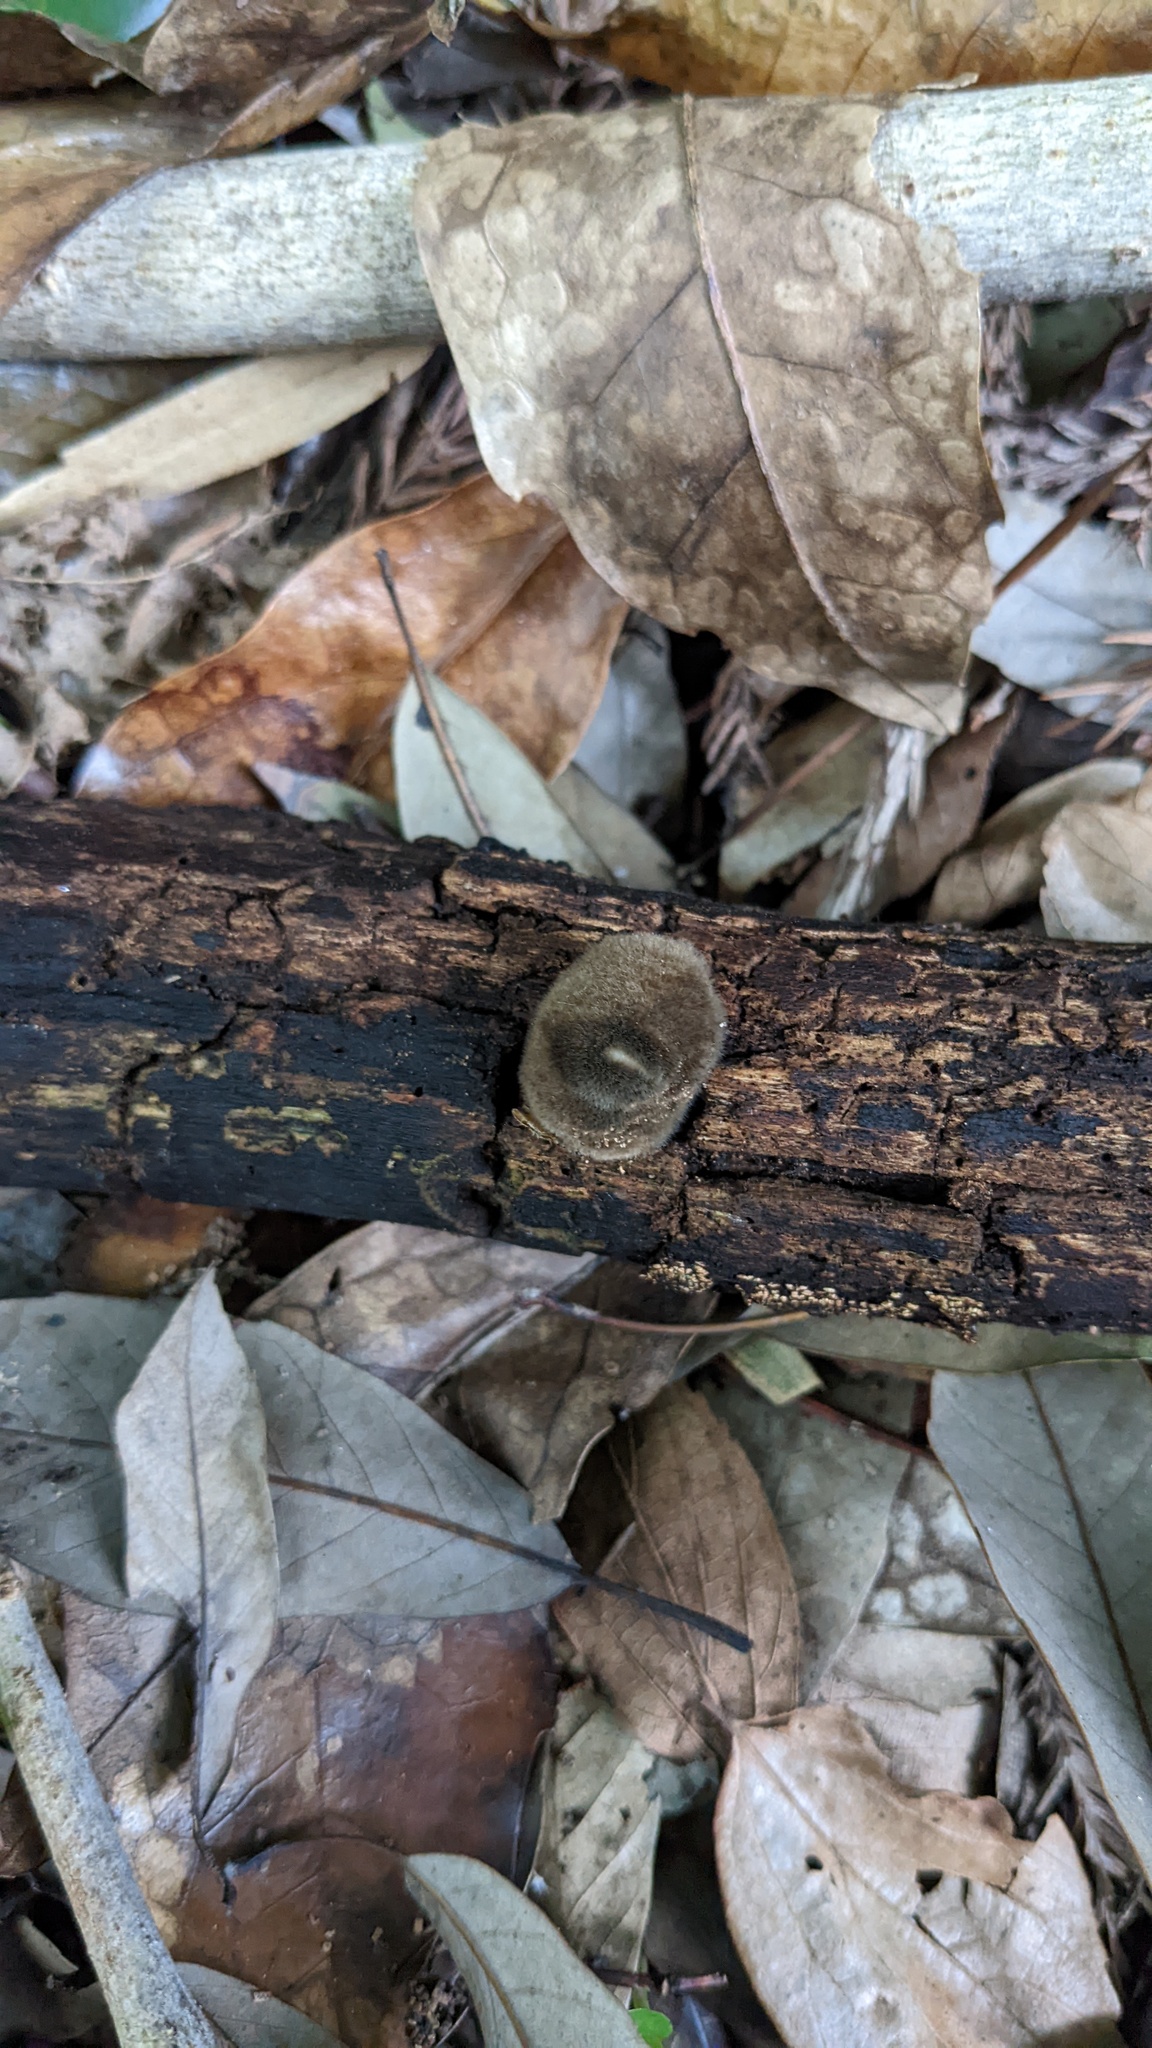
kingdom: Fungi
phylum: Ascomycota
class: Pezizomycetes
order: Pezizales
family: Pyronemataceae
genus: Trichaleurina
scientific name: Trichaleurina tenuispora
